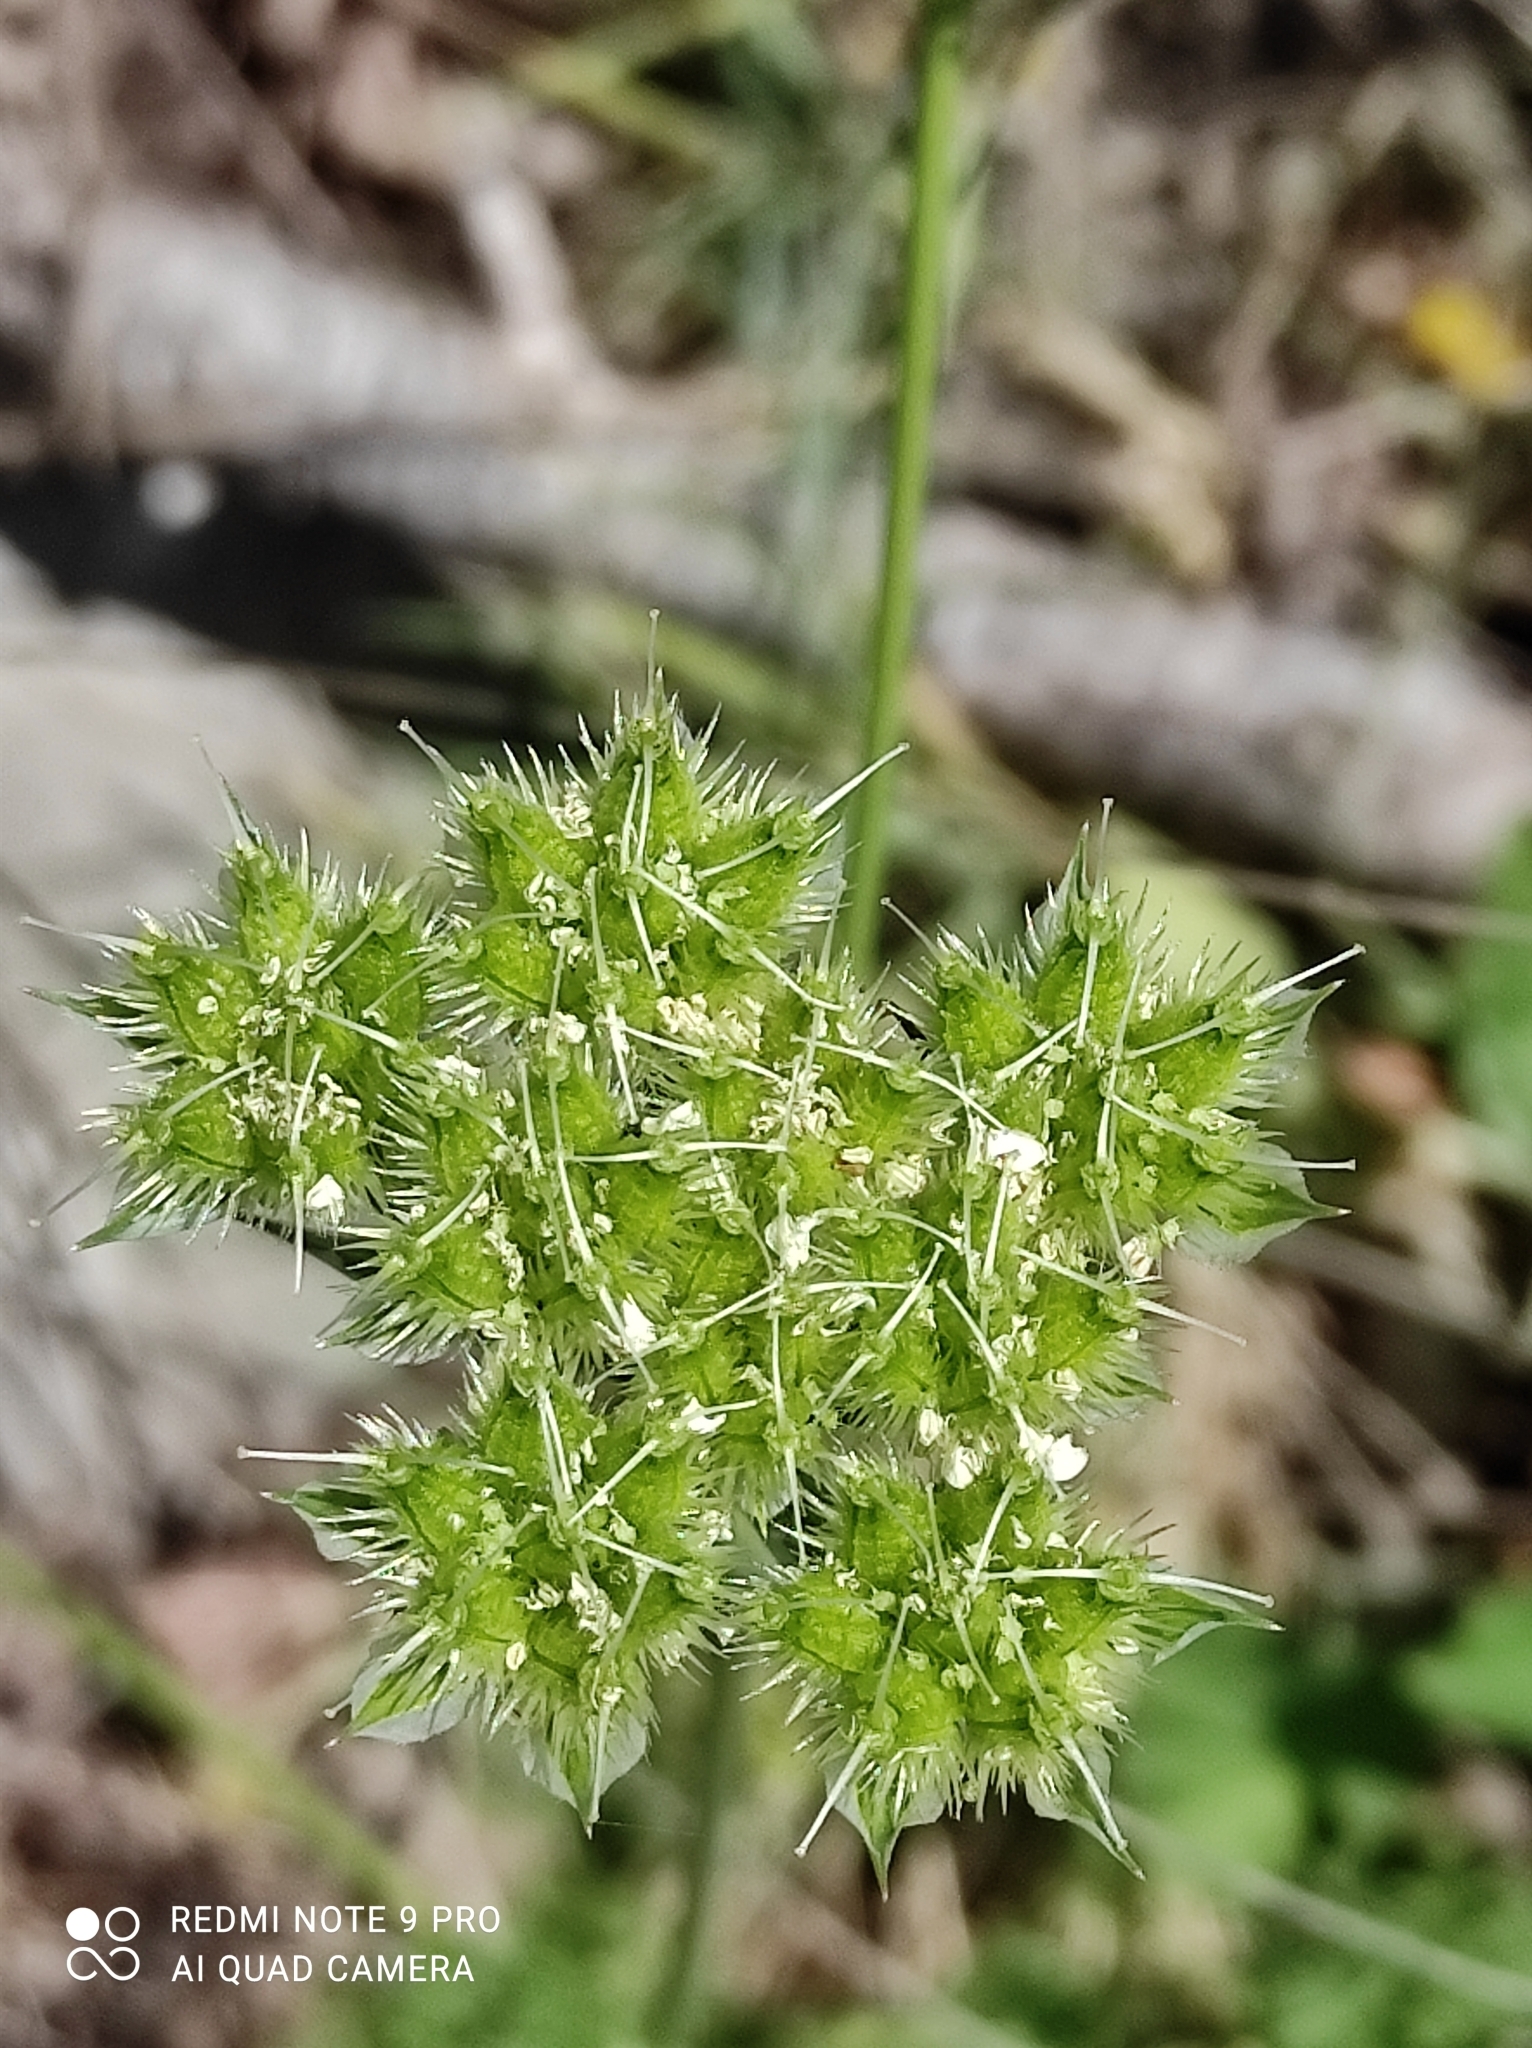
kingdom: Plantae
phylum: Tracheophyta
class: Magnoliopsida
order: Apiales
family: Apiaceae
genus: Orlaya
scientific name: Orlaya grandiflora
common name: White lace flower
